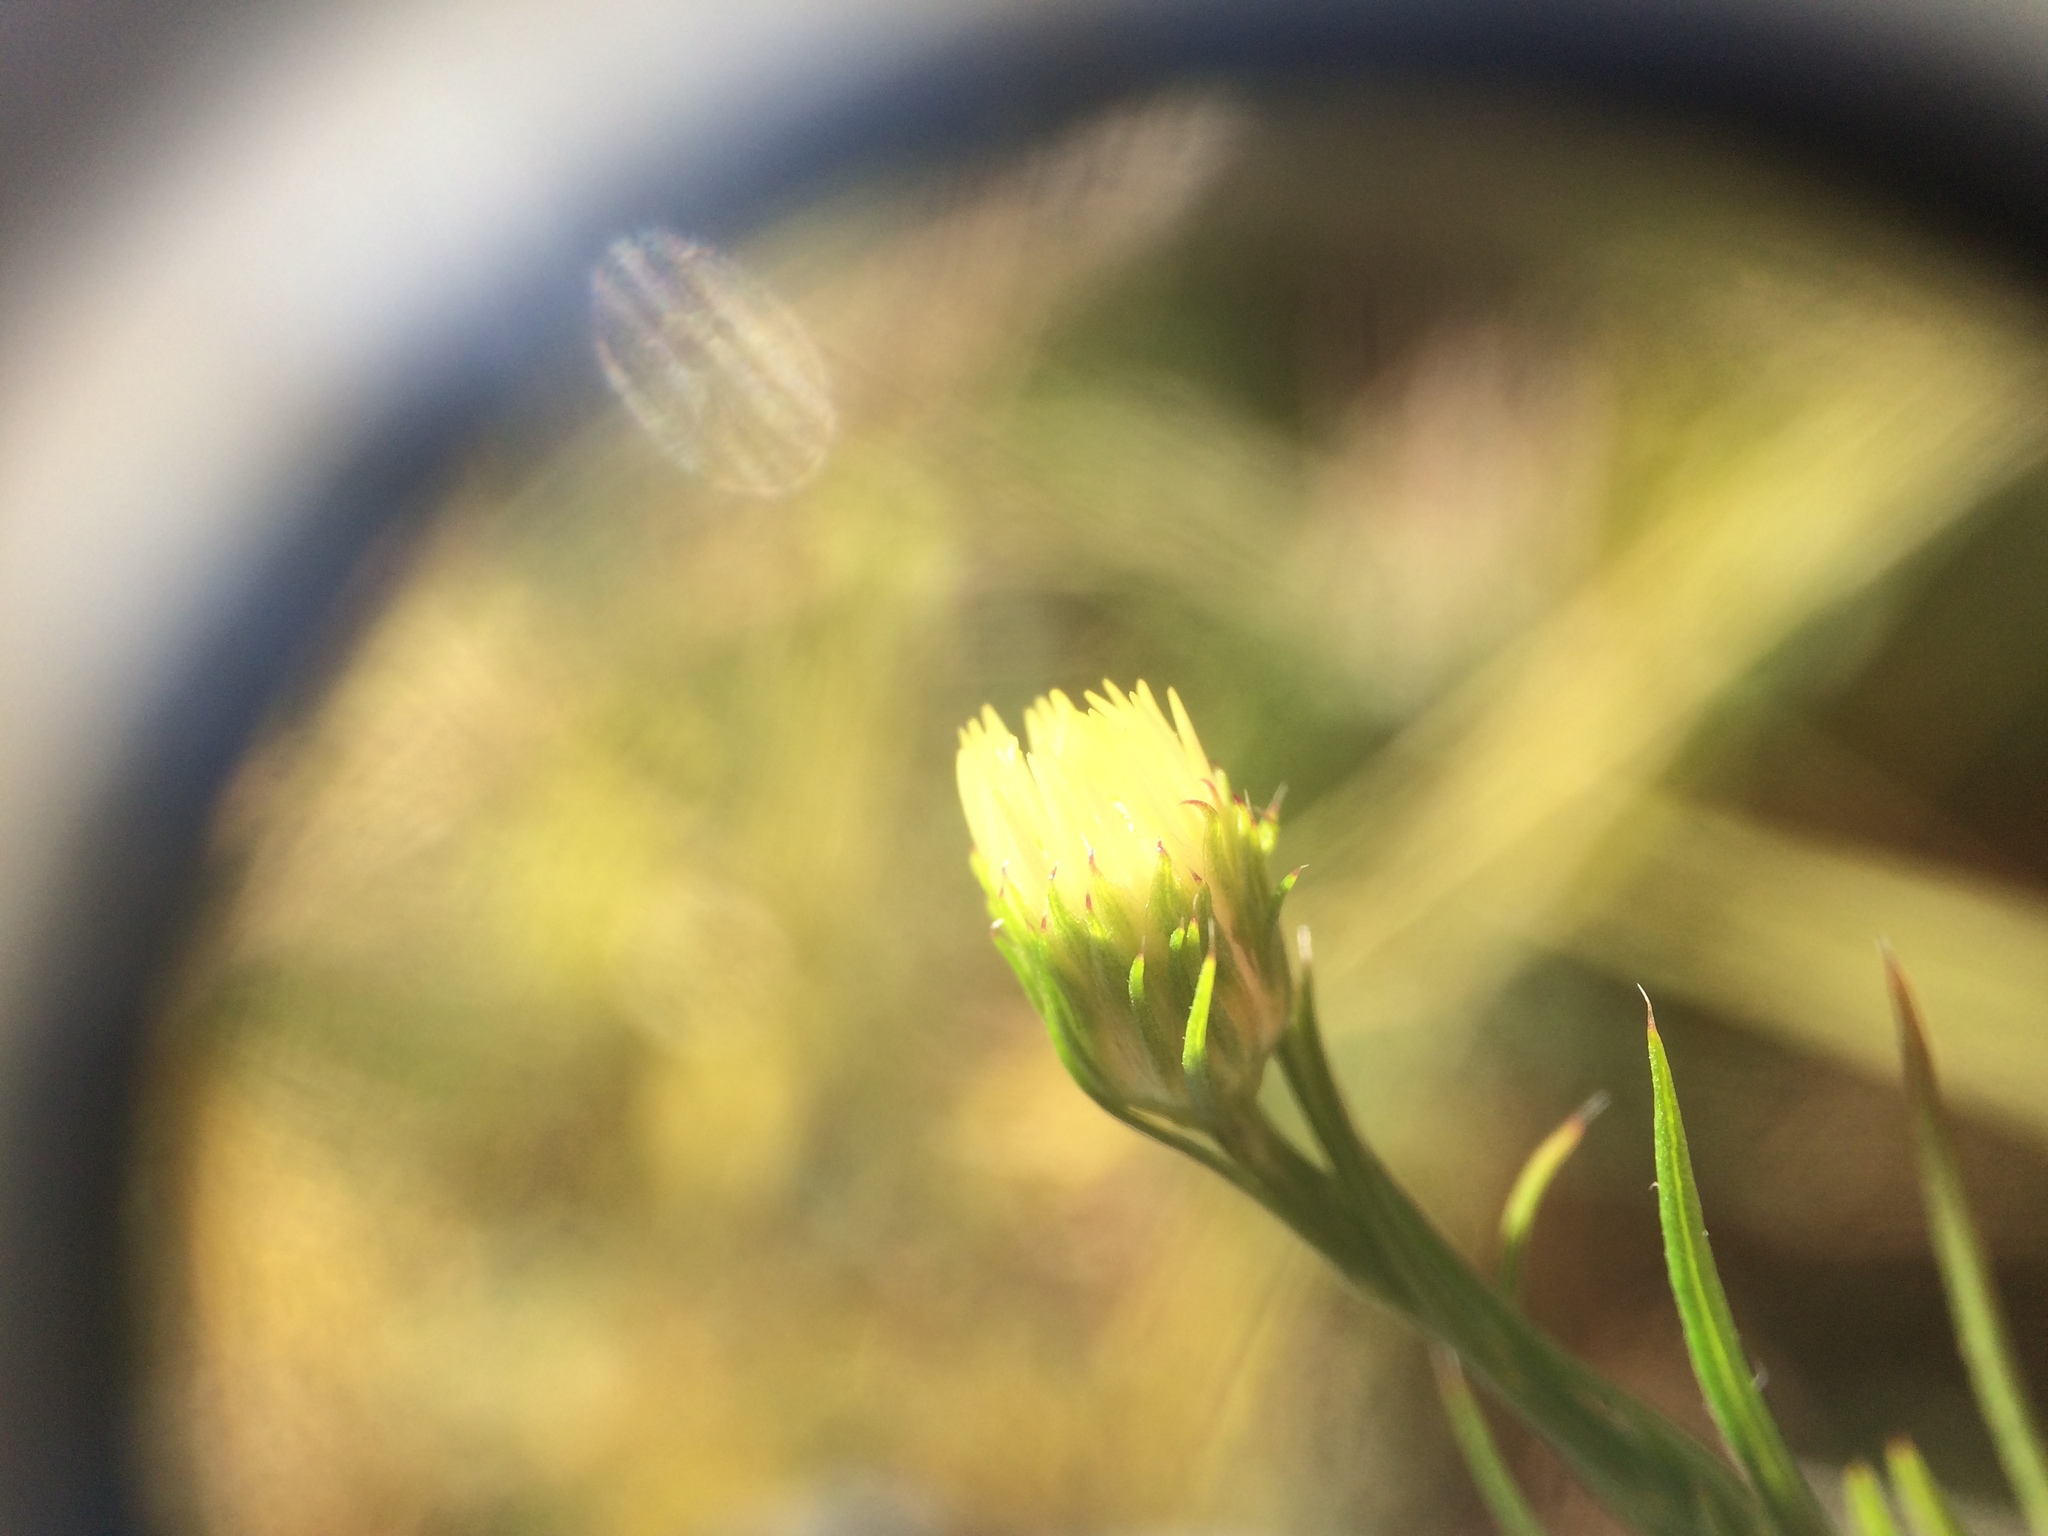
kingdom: Plantae
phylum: Tracheophyta
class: Magnoliopsida
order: Asterales
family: Asteraceae
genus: Symphyotrichum
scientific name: Symphyotrichum pilosum
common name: Awl aster
